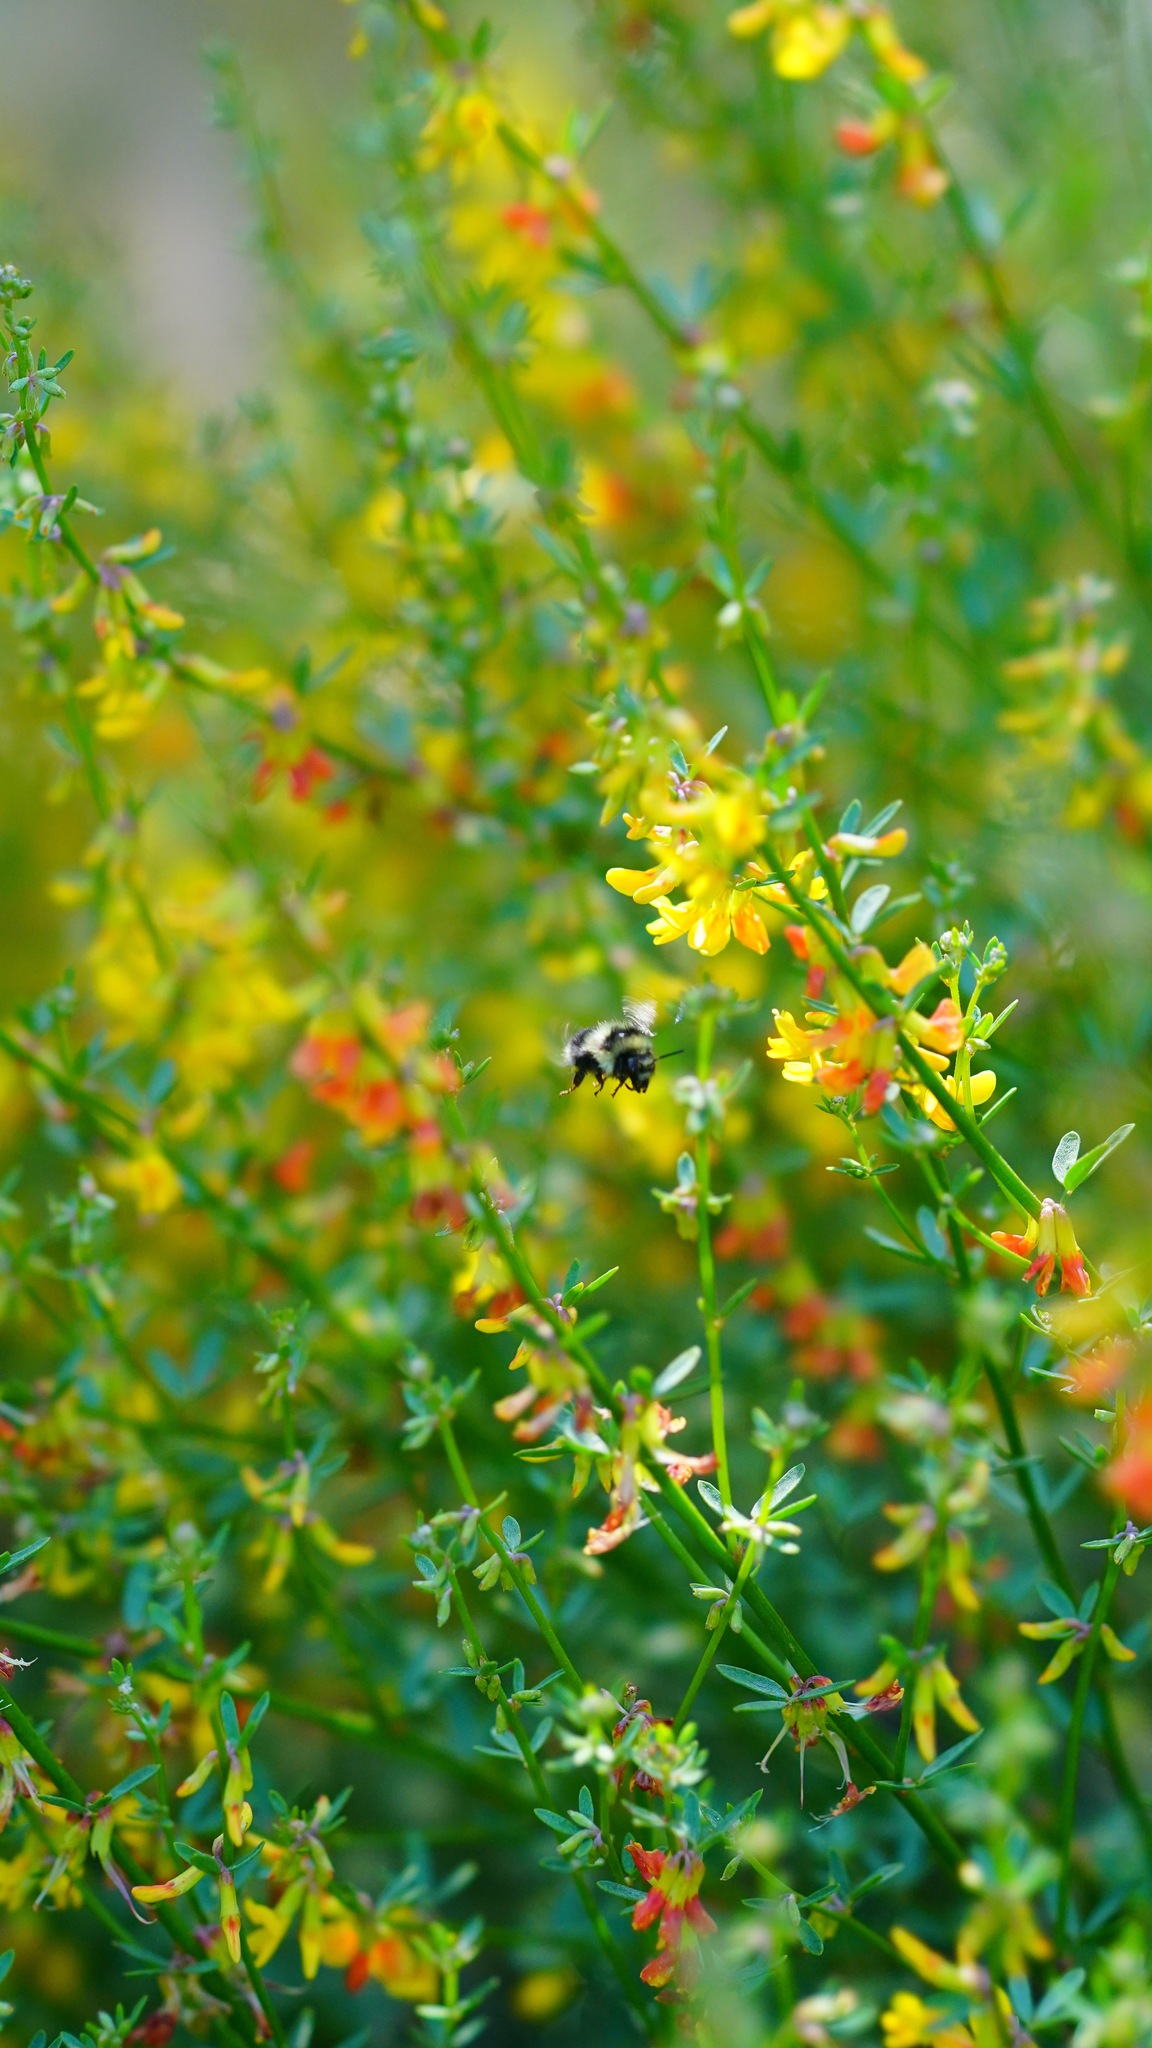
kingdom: Animalia
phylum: Arthropoda
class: Insecta
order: Hymenoptera
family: Apidae
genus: Bombus
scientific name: Bombus melanopygus
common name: Black tail bumble bee
